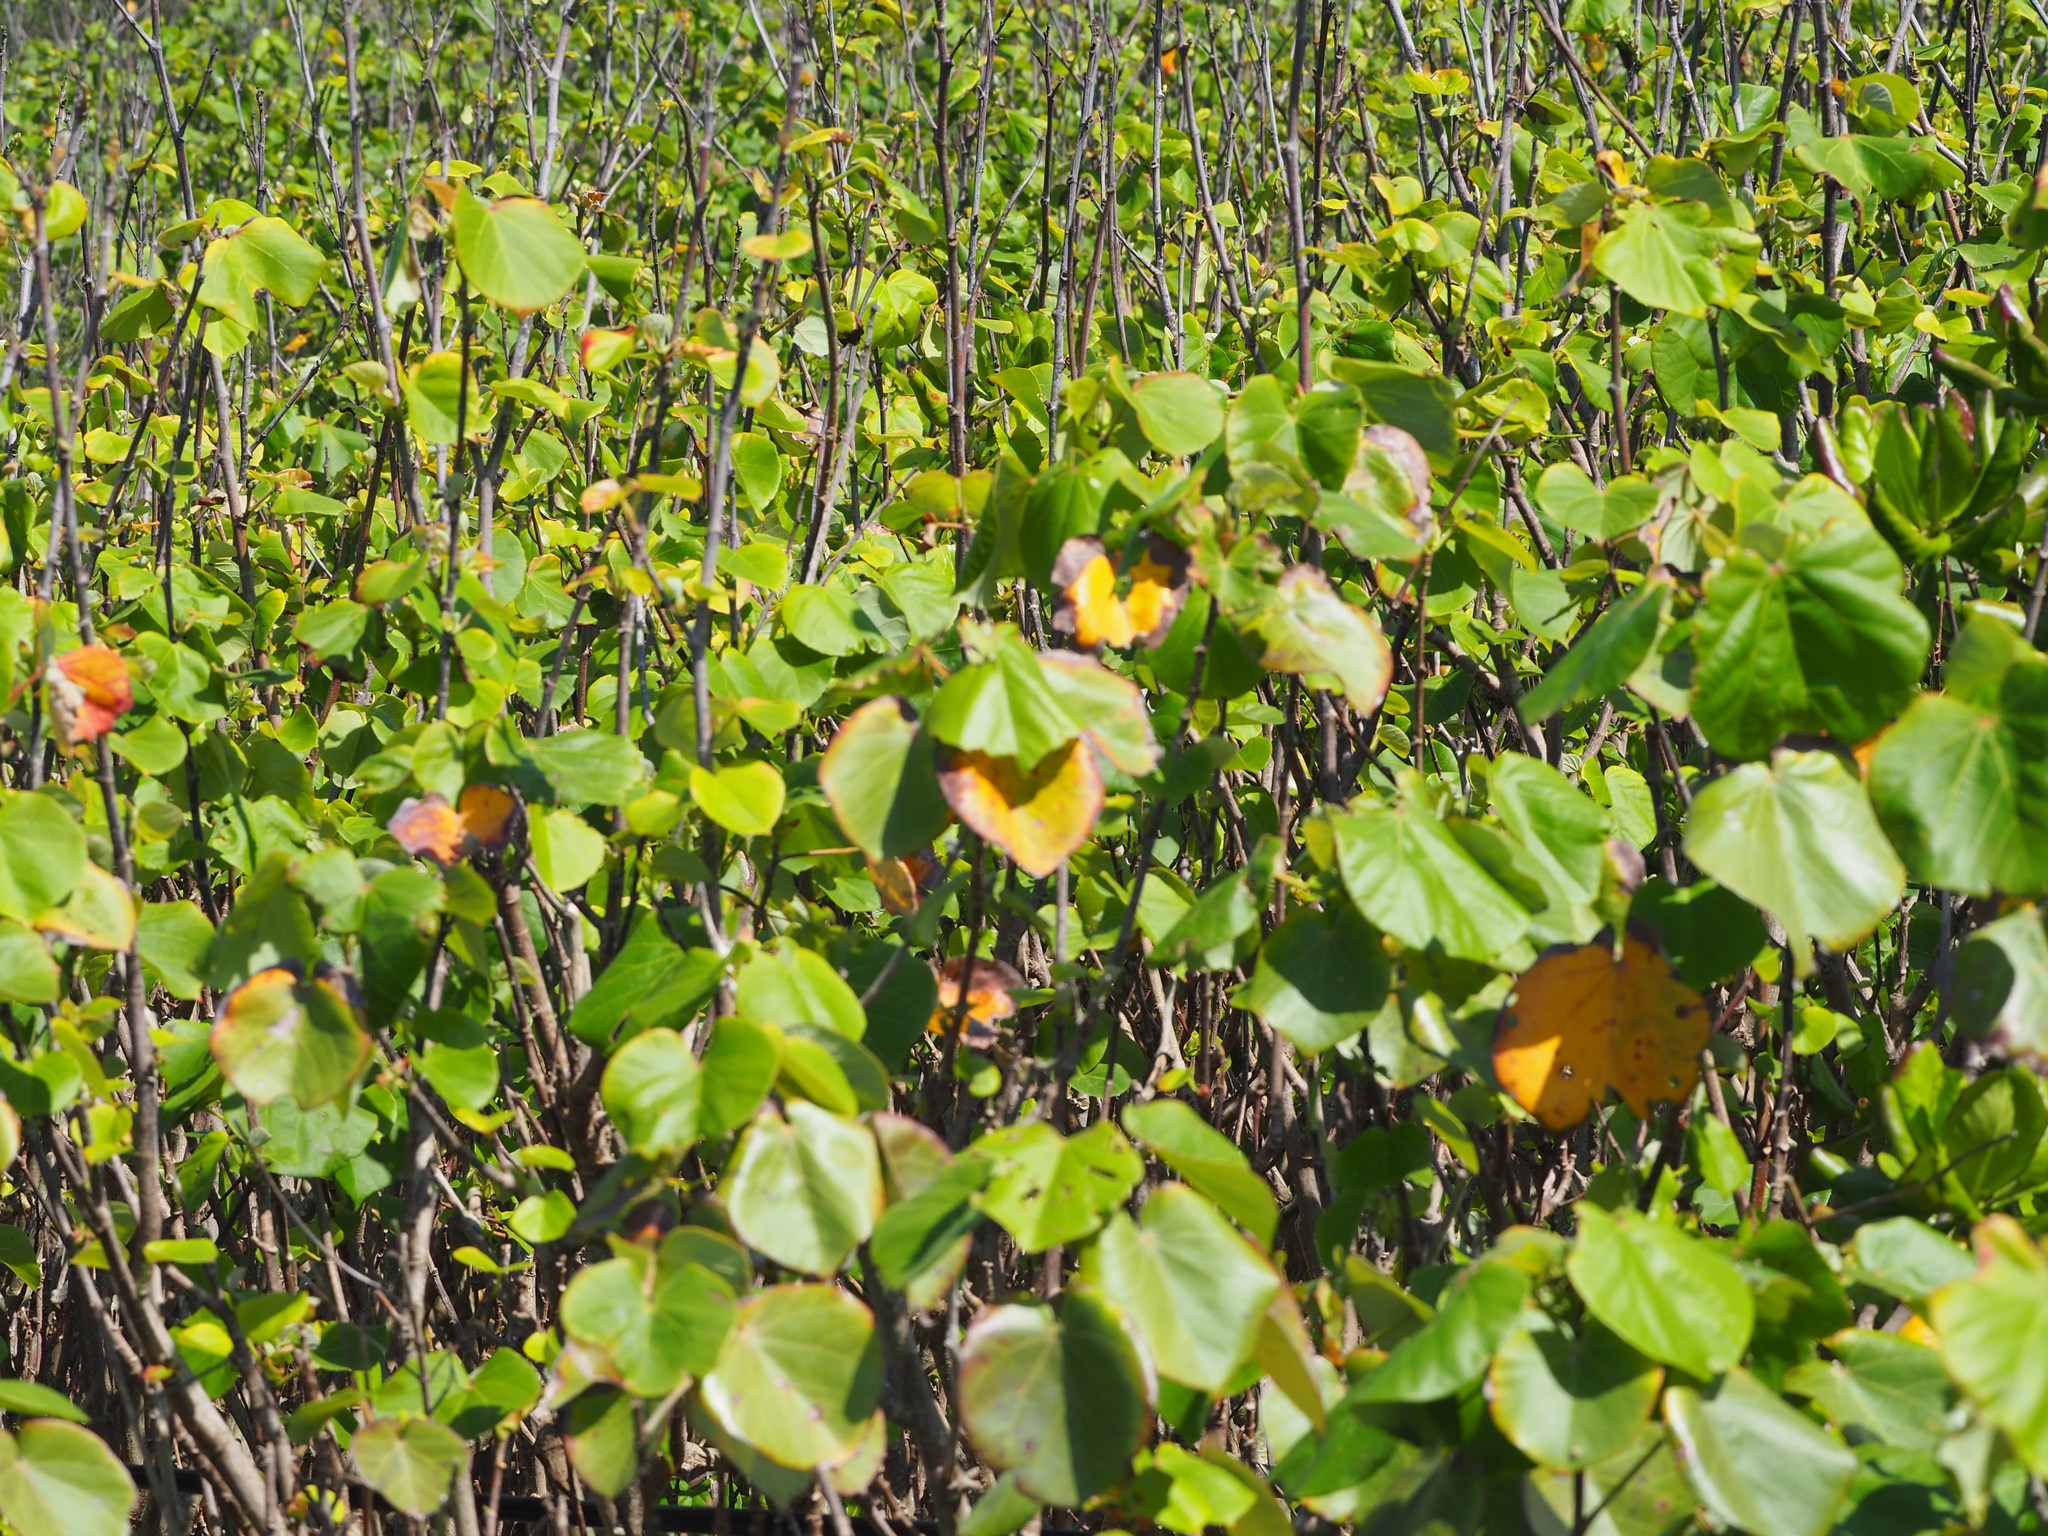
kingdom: Plantae
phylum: Tracheophyta
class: Magnoliopsida
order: Malvales
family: Malvaceae
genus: Talipariti
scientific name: Talipariti tiliaceum
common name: Sea hibiscus
